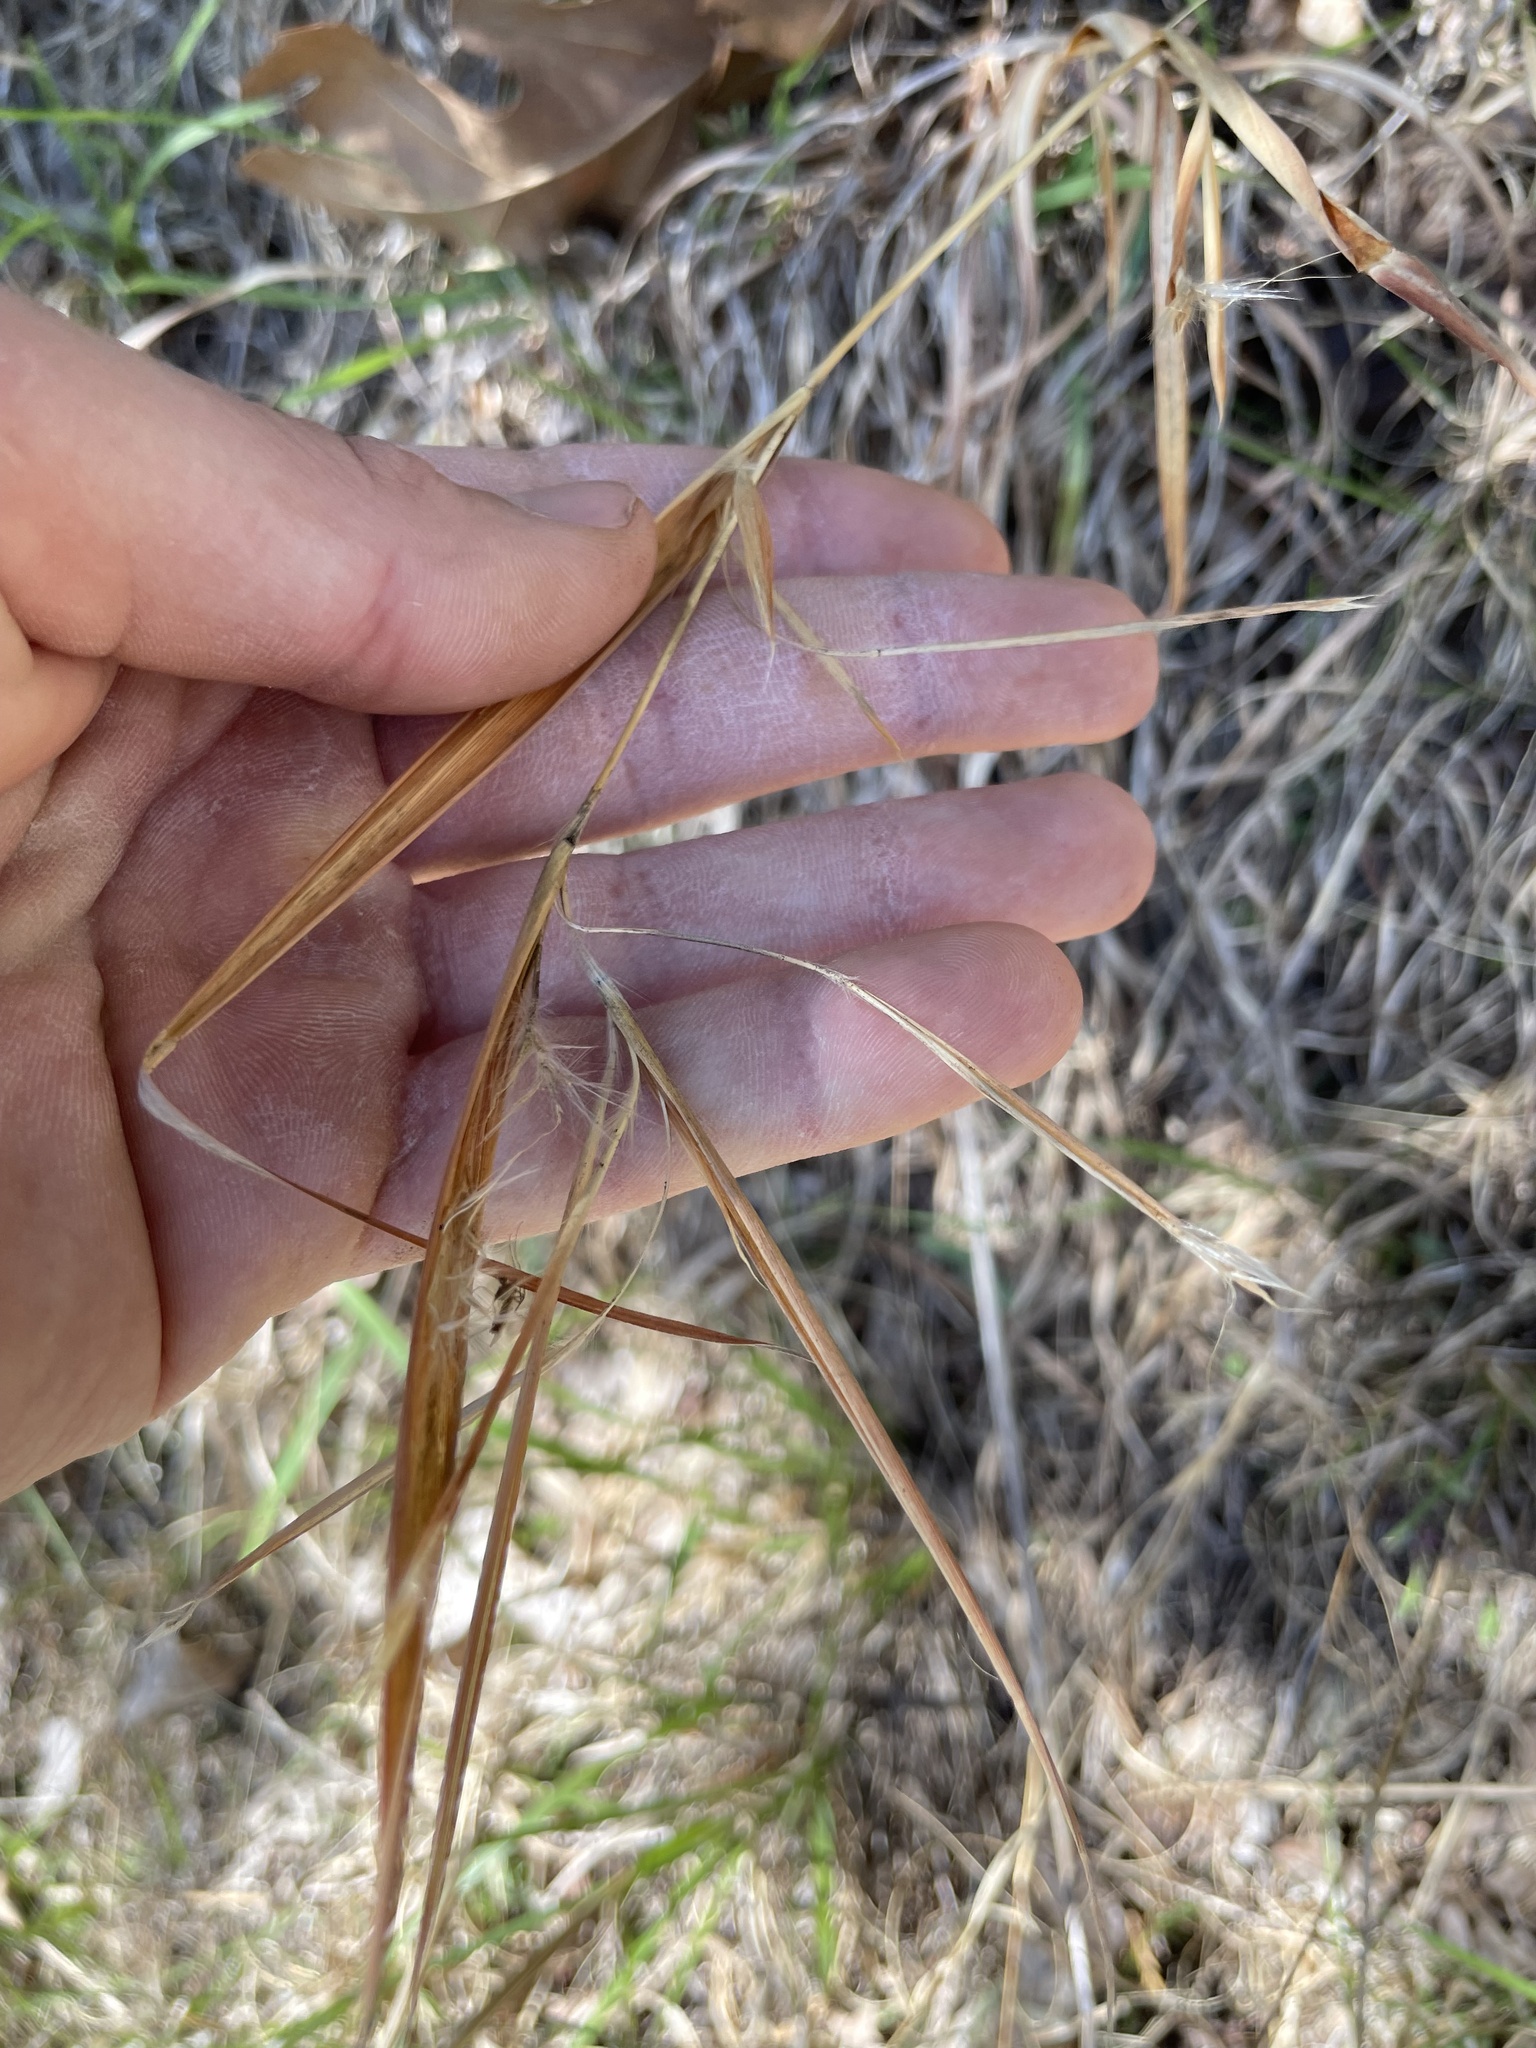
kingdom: Plantae
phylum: Tracheophyta
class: Liliopsida
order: Poales
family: Poaceae
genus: Andropogon
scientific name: Andropogon gyrans
